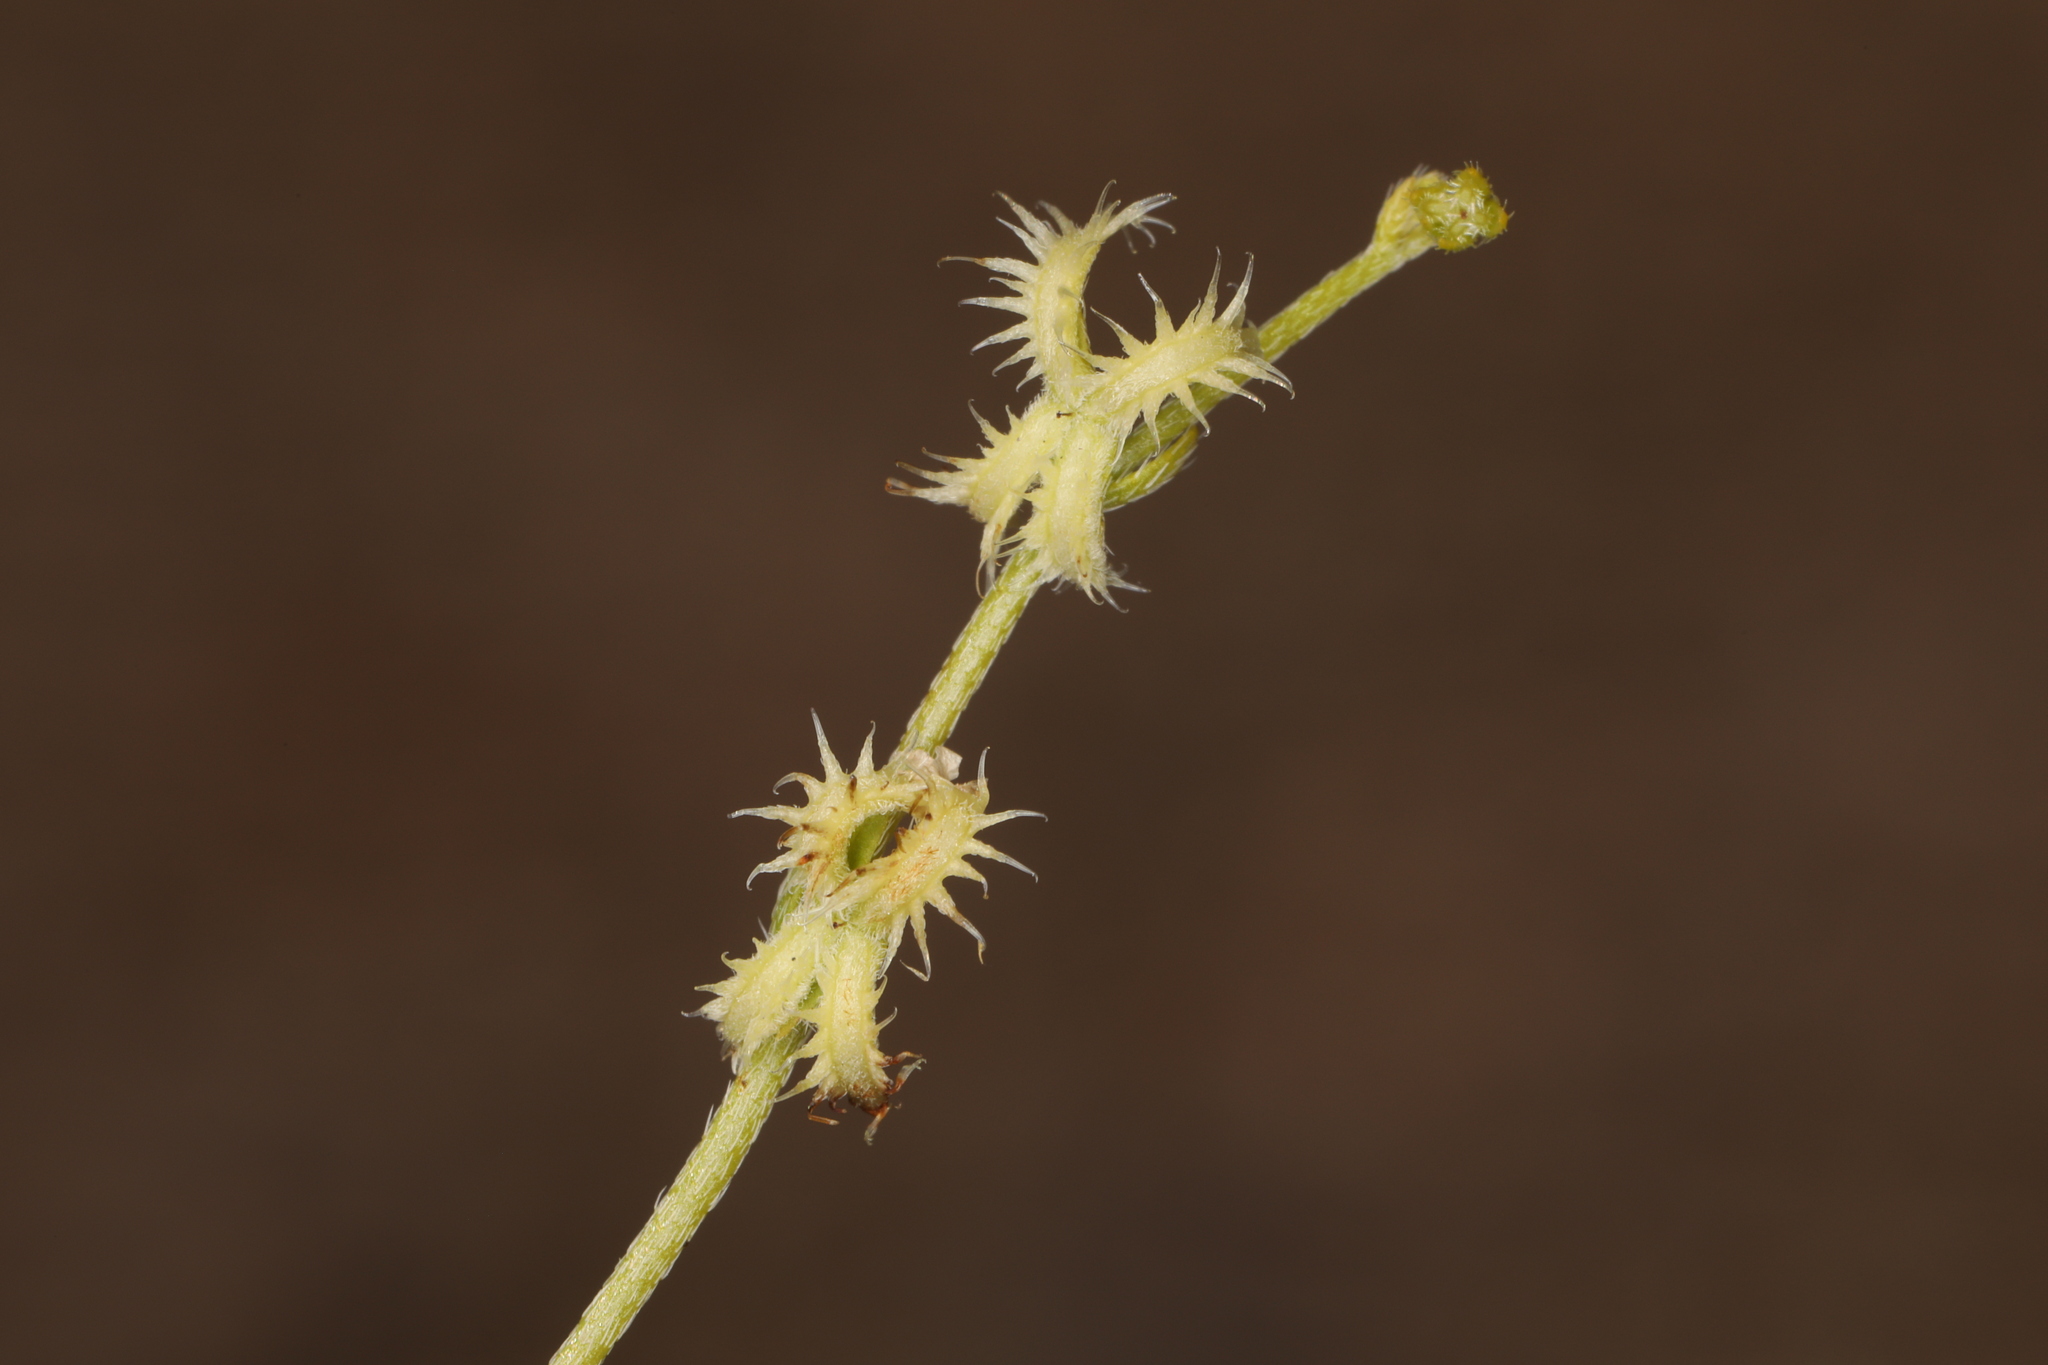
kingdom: Plantae
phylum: Tracheophyta
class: Magnoliopsida
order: Boraginales
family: Boraginaceae
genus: Pectocarya
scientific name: Pectocarya recurvata
